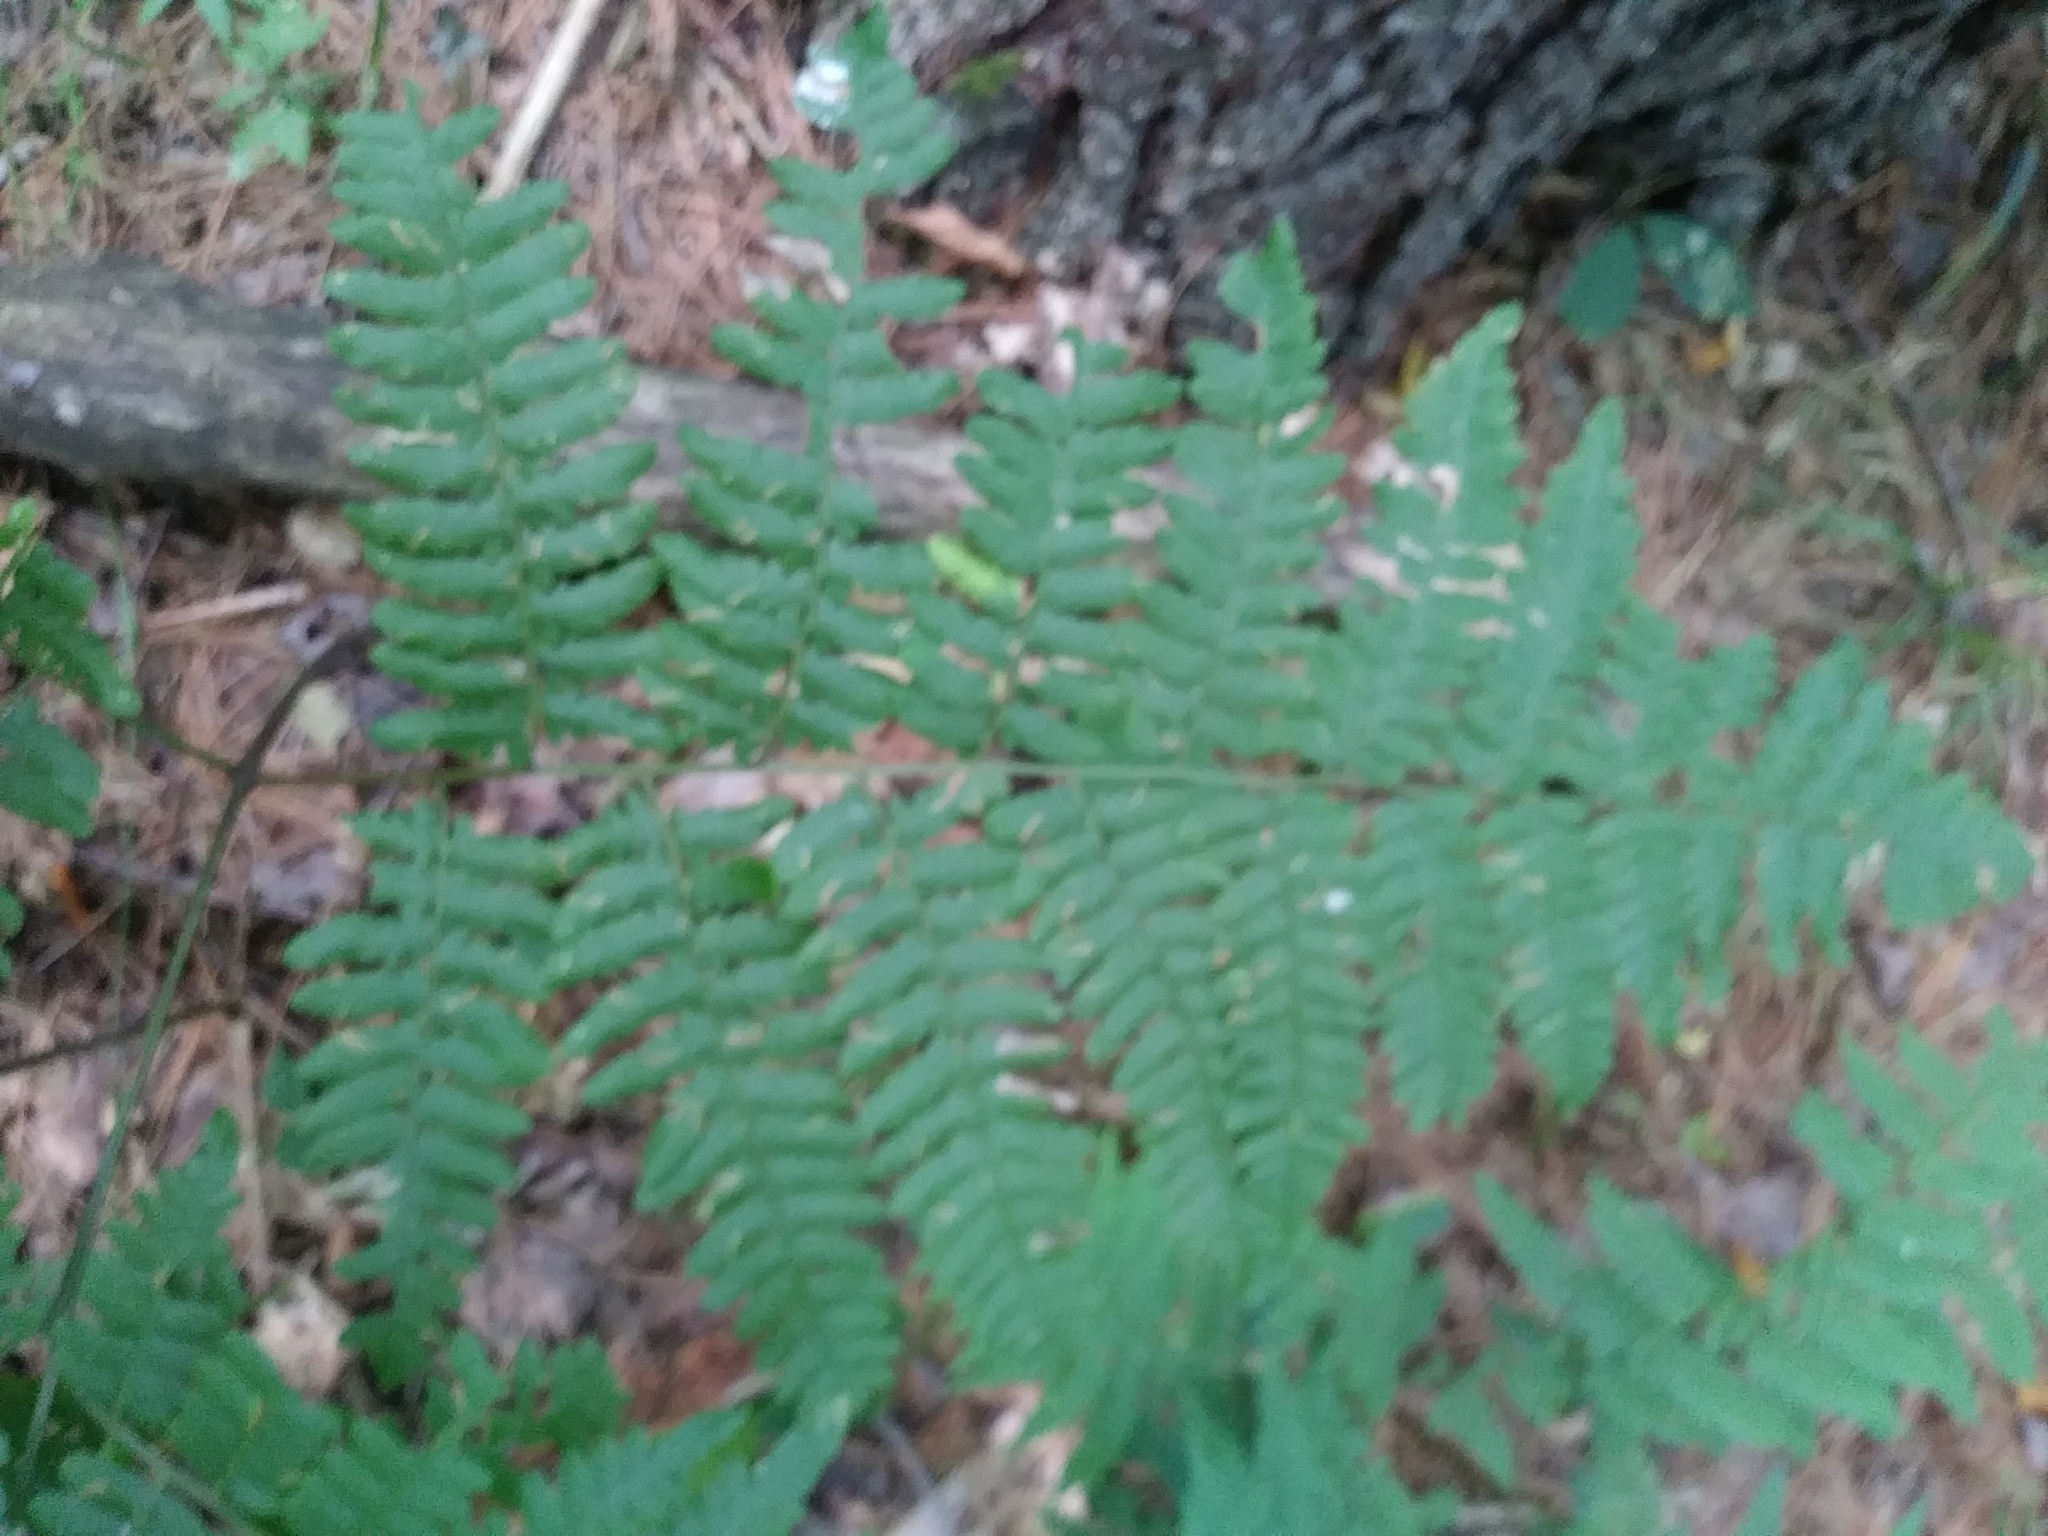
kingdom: Plantae
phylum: Tracheophyta
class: Polypodiopsida
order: Polypodiales
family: Dennstaedtiaceae
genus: Pteridium
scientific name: Pteridium aquilinum
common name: Bracken
